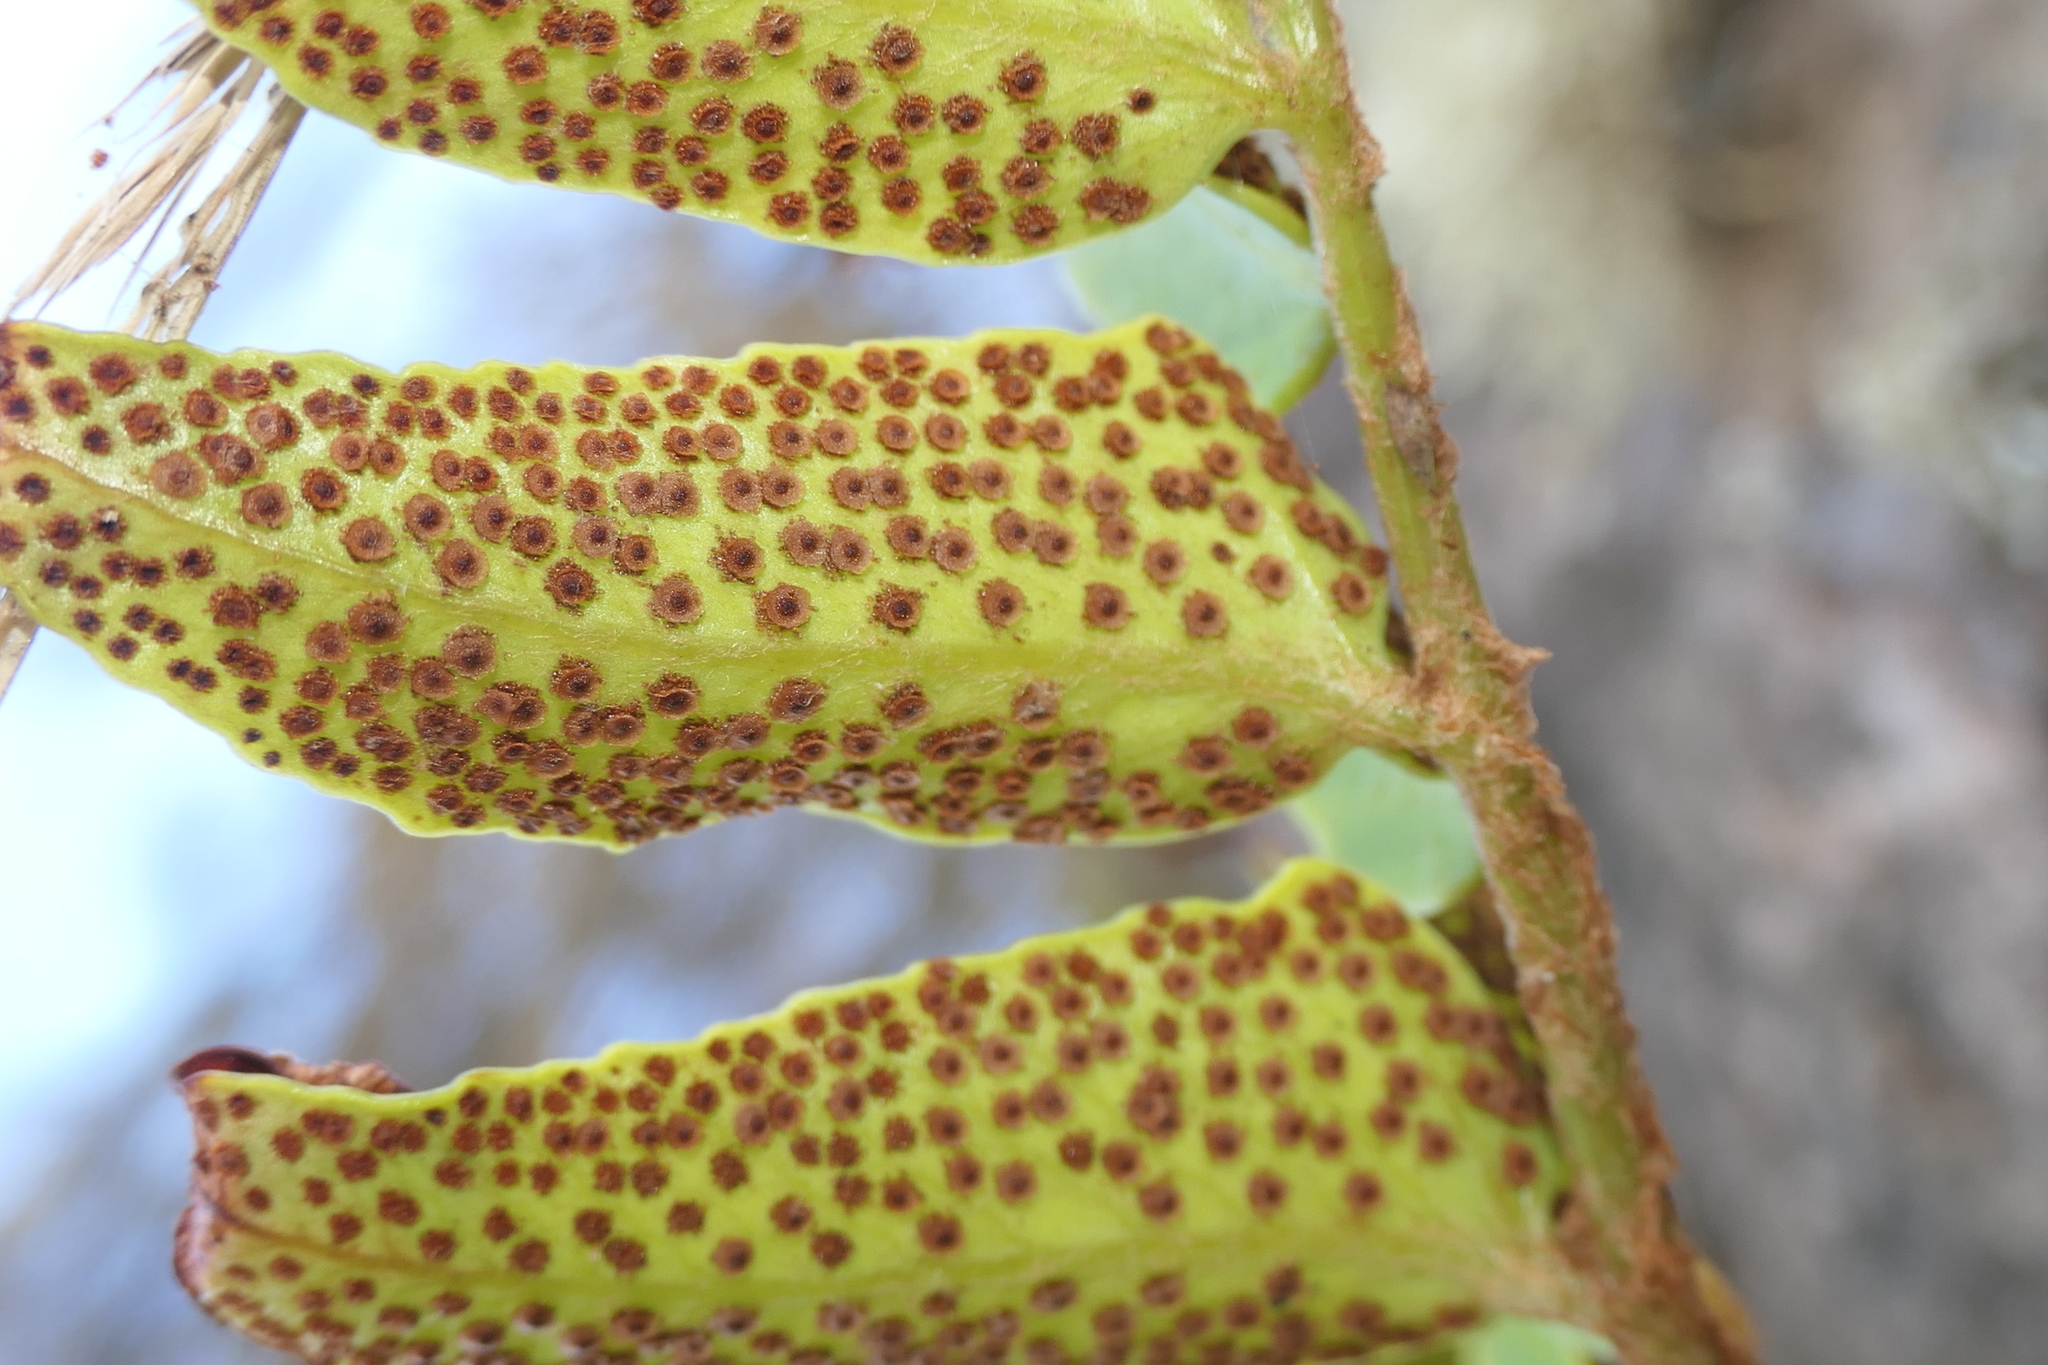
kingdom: Plantae
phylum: Tracheophyta
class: Polypodiopsida
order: Polypodiales
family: Dryopteridaceae
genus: Cyrtomium
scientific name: Cyrtomium falcatum
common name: House holly-fern
